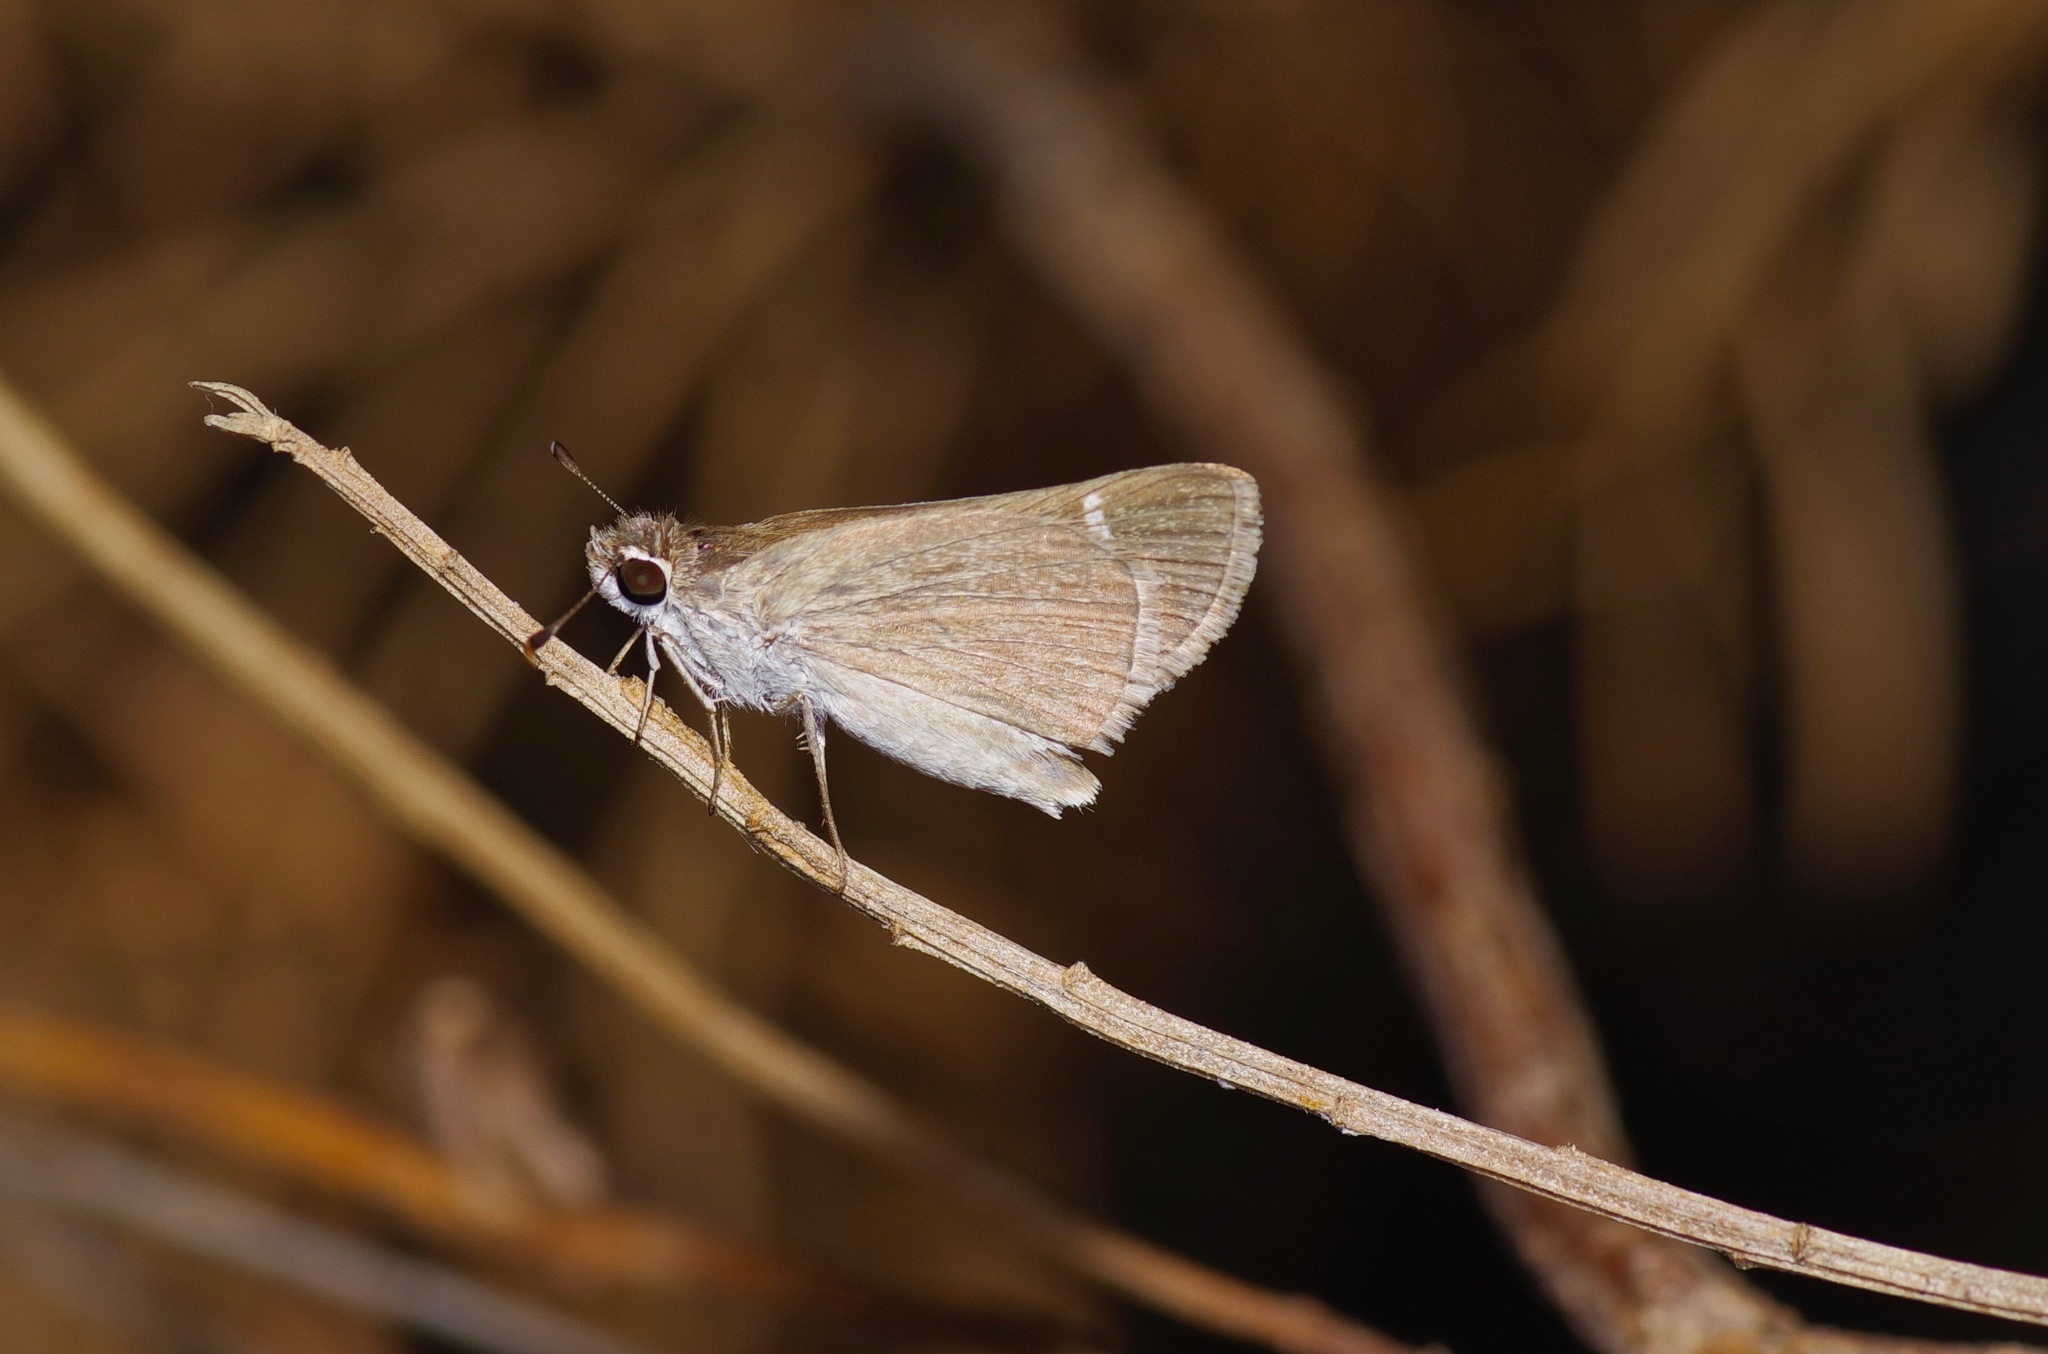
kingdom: Animalia
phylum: Arthropoda
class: Insecta
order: Lepidoptera
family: Hesperiidae
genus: Lerodea
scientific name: Lerodea eufala
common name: Eufala skipper
